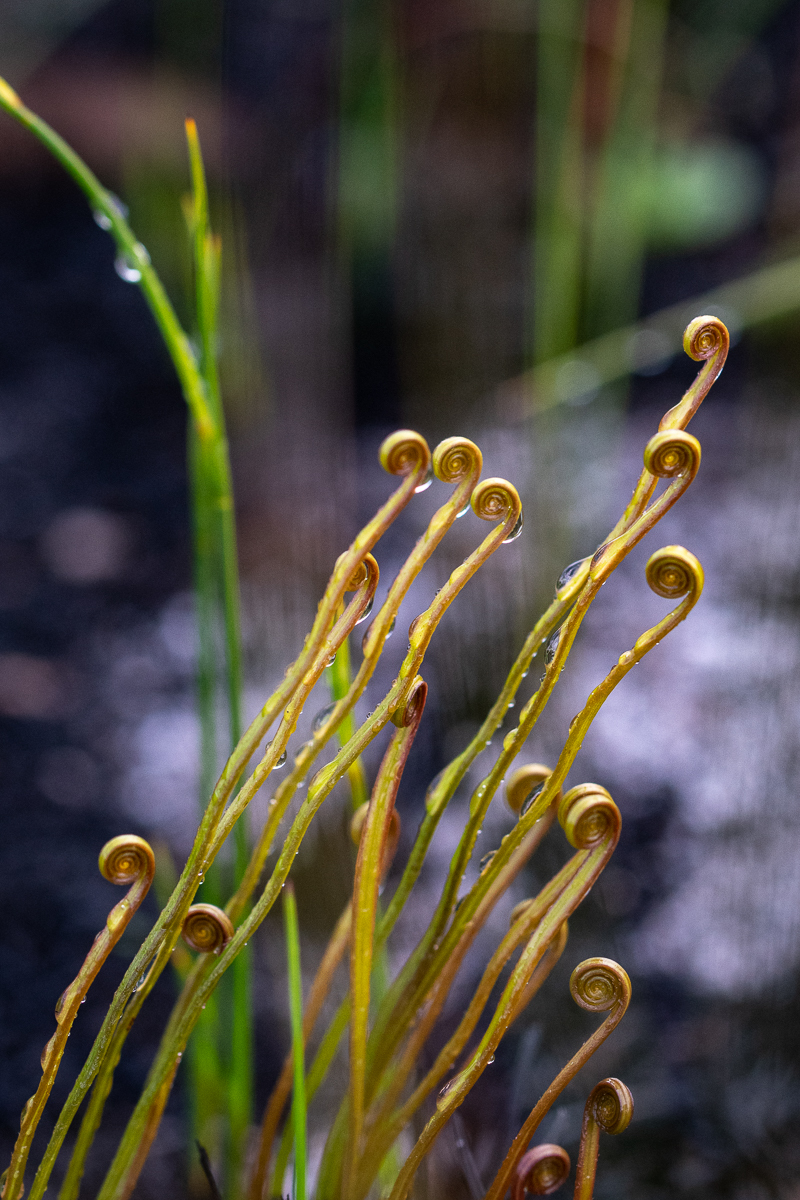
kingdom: Plantae
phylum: Tracheophyta
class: Polypodiopsida
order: Schizaeales
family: Schizaeaceae
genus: Schizaea
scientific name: Schizaea pectinata
